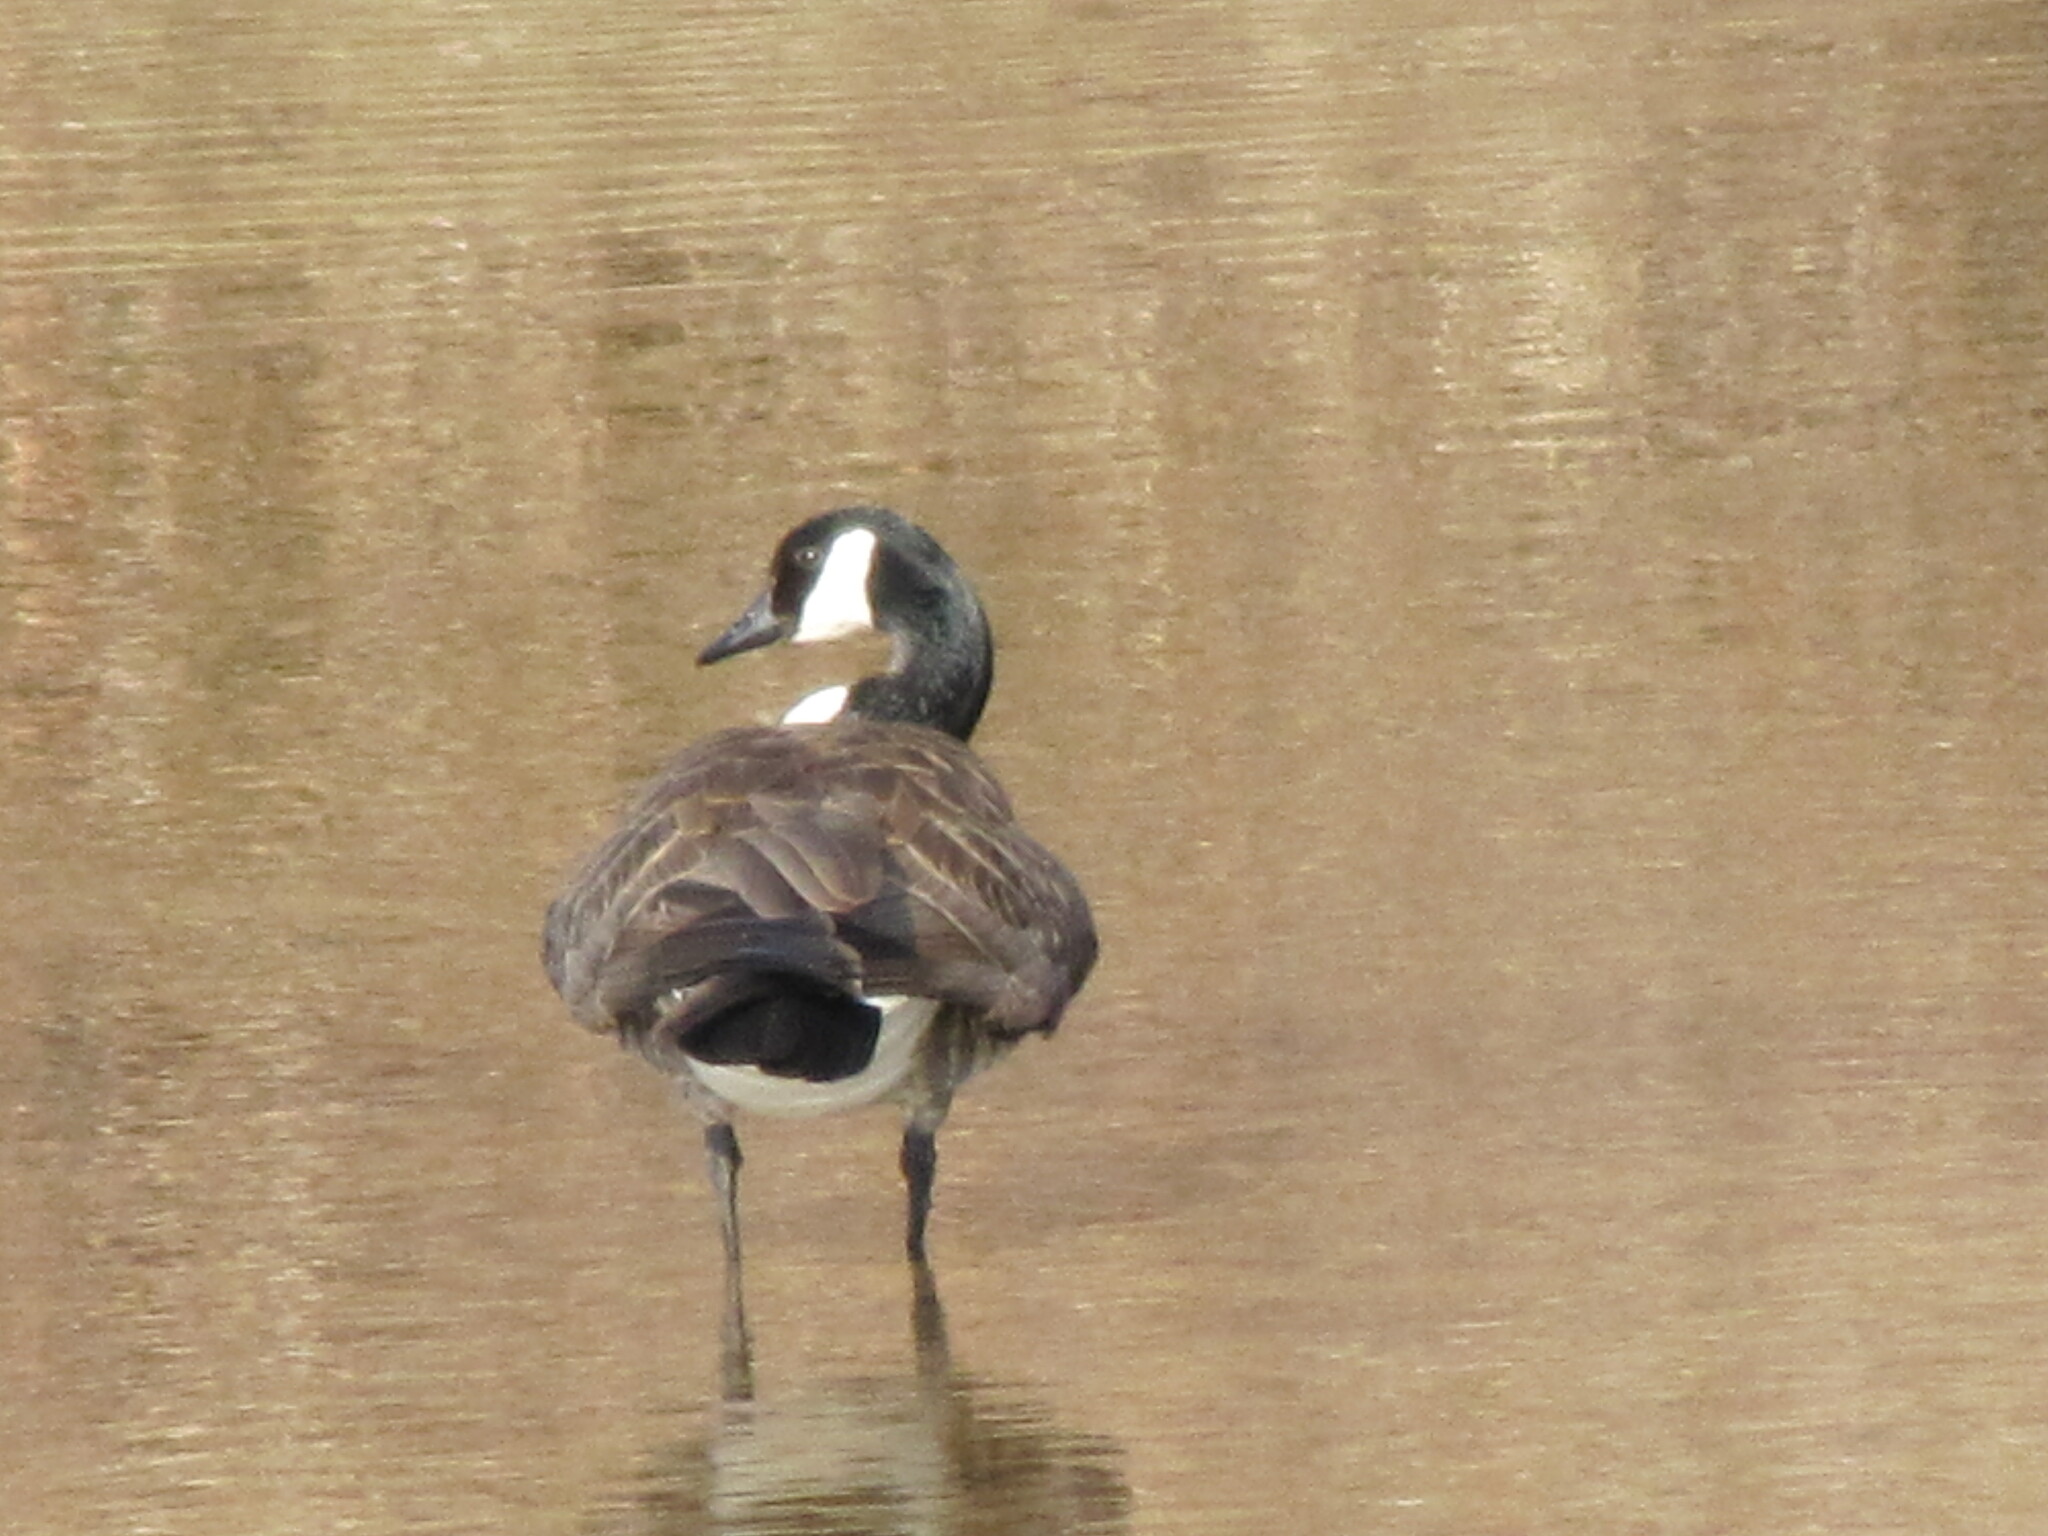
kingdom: Animalia
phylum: Chordata
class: Aves
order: Anseriformes
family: Anatidae
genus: Branta
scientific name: Branta canadensis
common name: Canada goose
